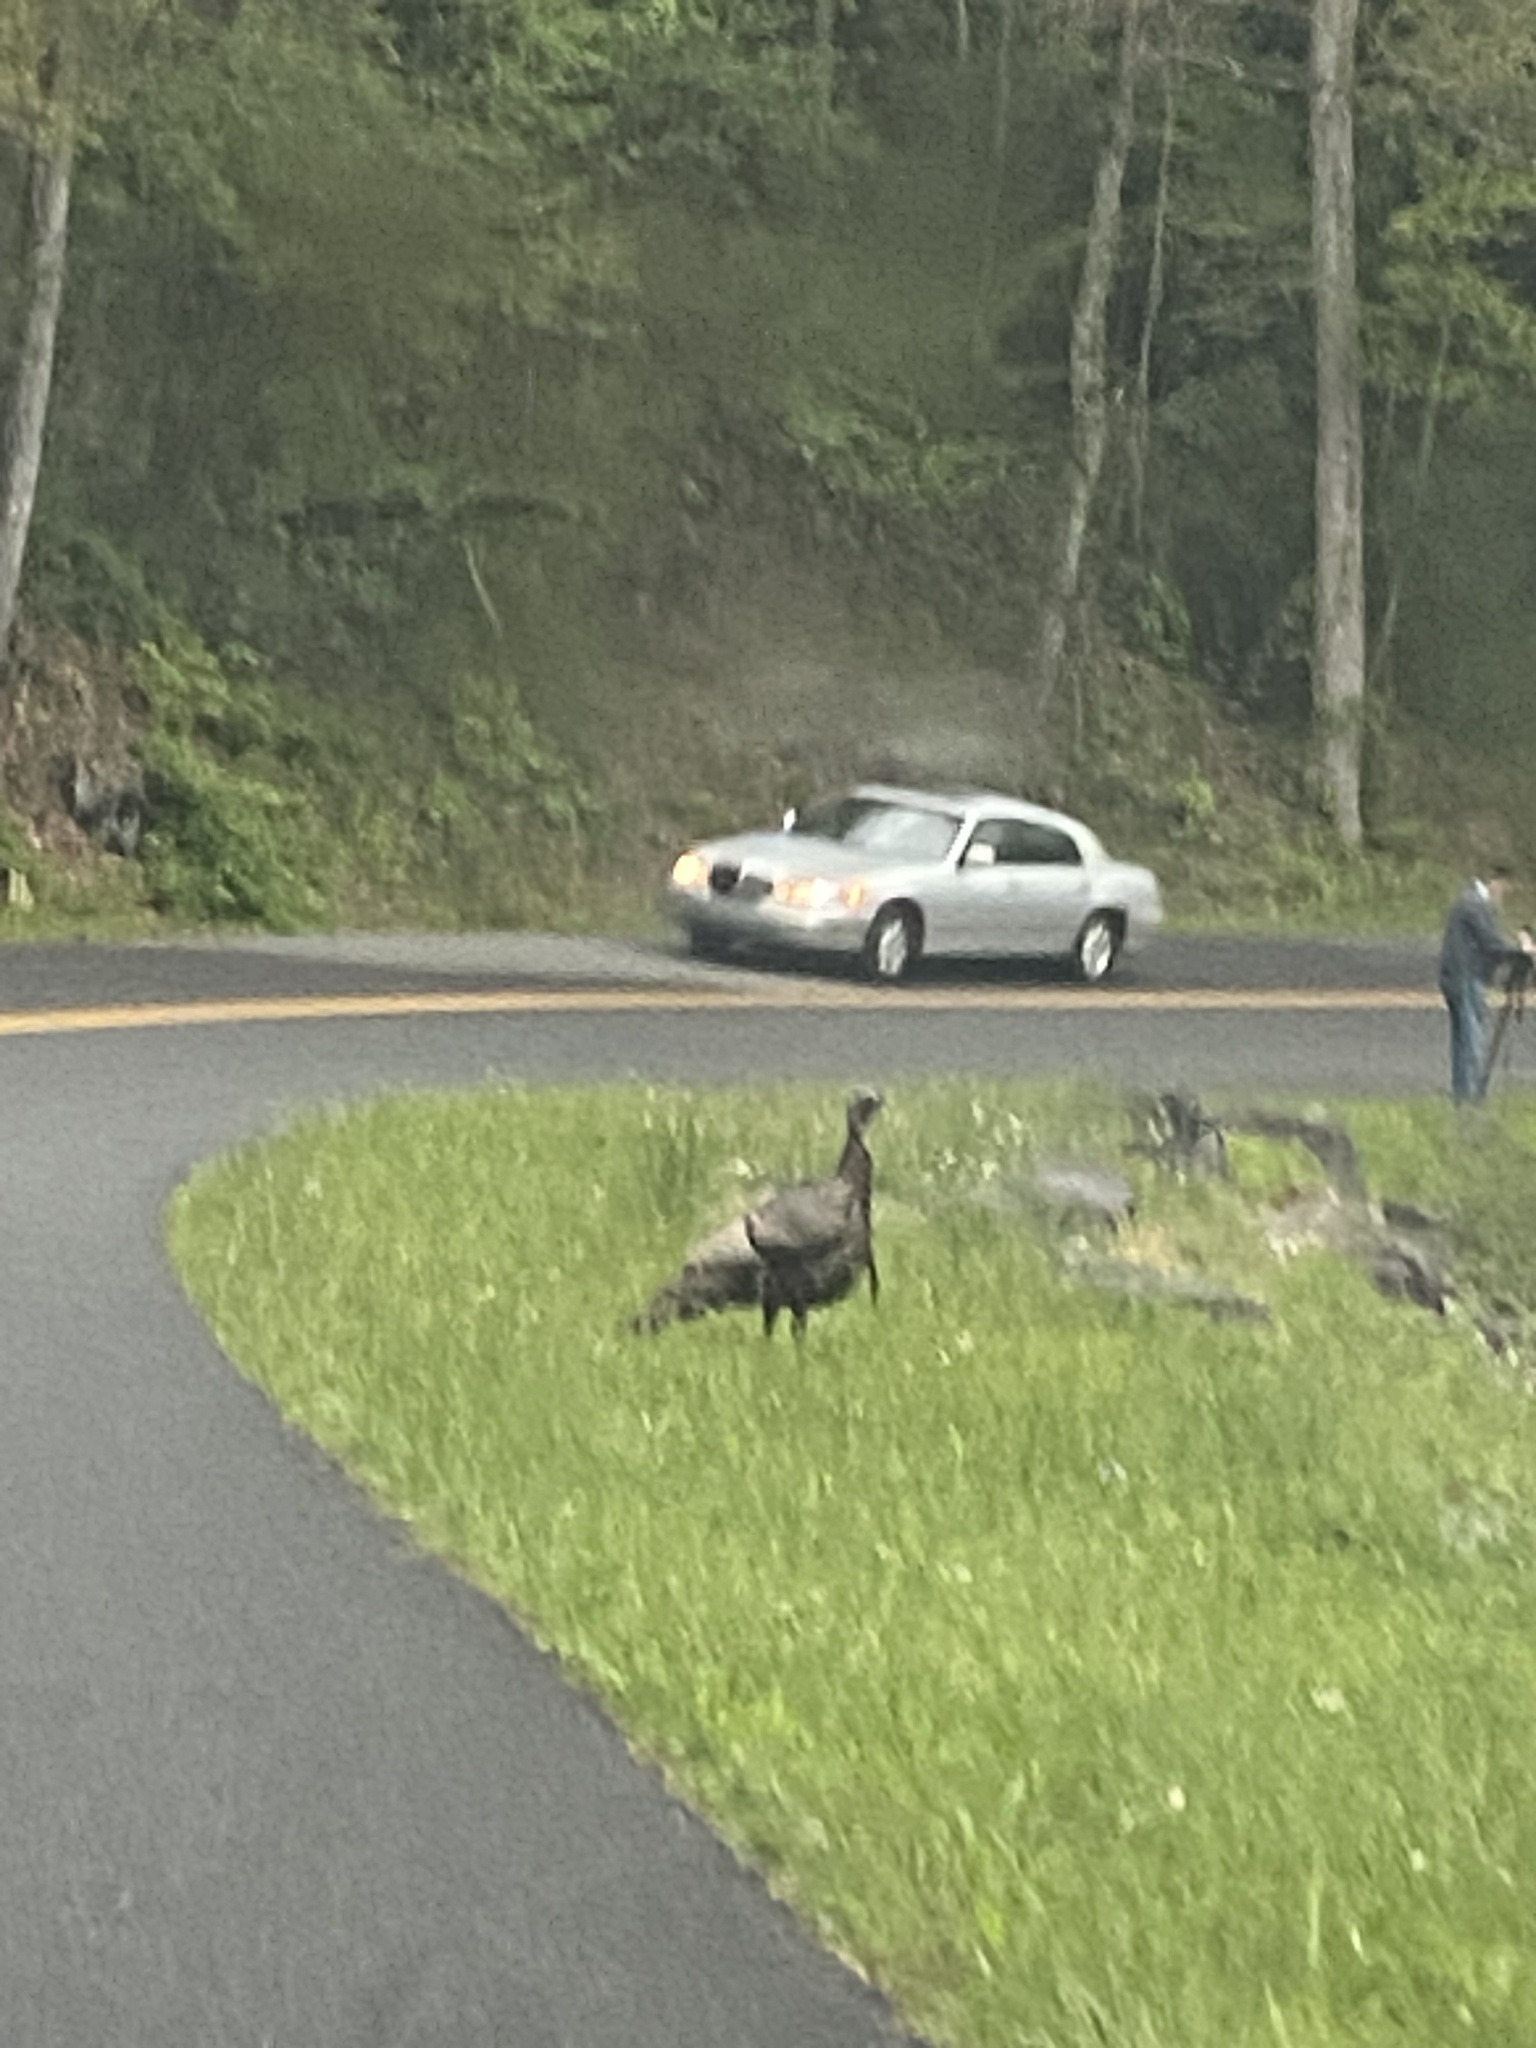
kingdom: Animalia
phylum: Chordata
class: Aves
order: Galliformes
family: Phasianidae
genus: Meleagris
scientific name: Meleagris gallopavo
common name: Wild turkey
